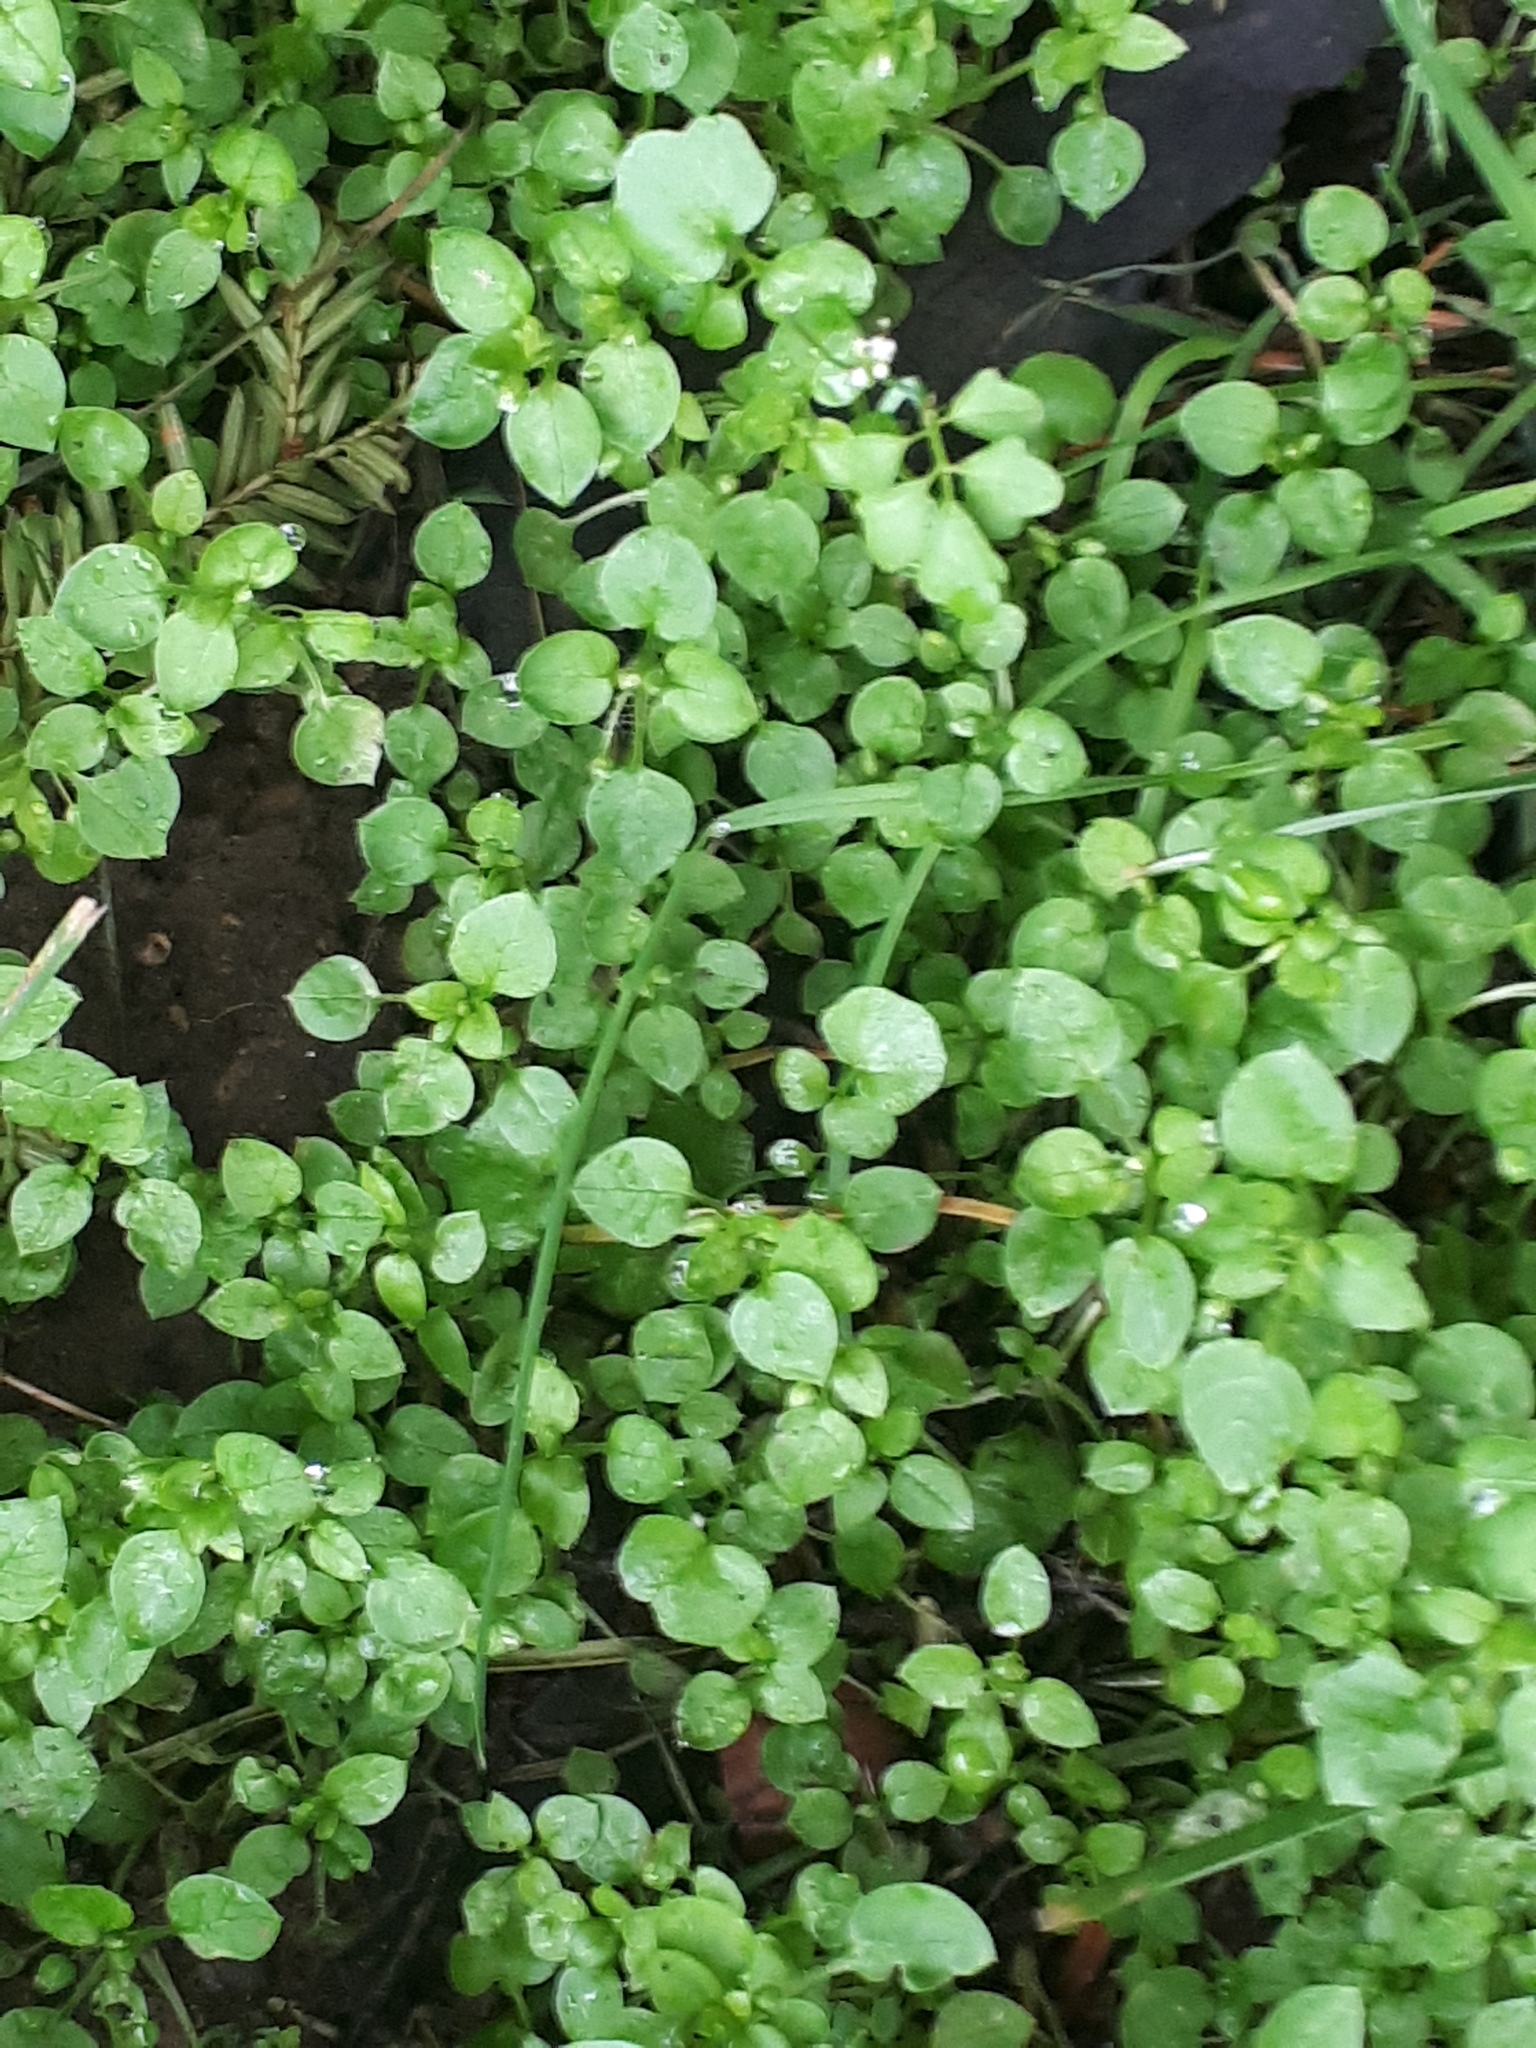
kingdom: Plantae
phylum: Tracheophyta
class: Magnoliopsida
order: Caryophyllales
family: Caryophyllaceae
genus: Stellaria
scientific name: Stellaria media
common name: Common chickweed
